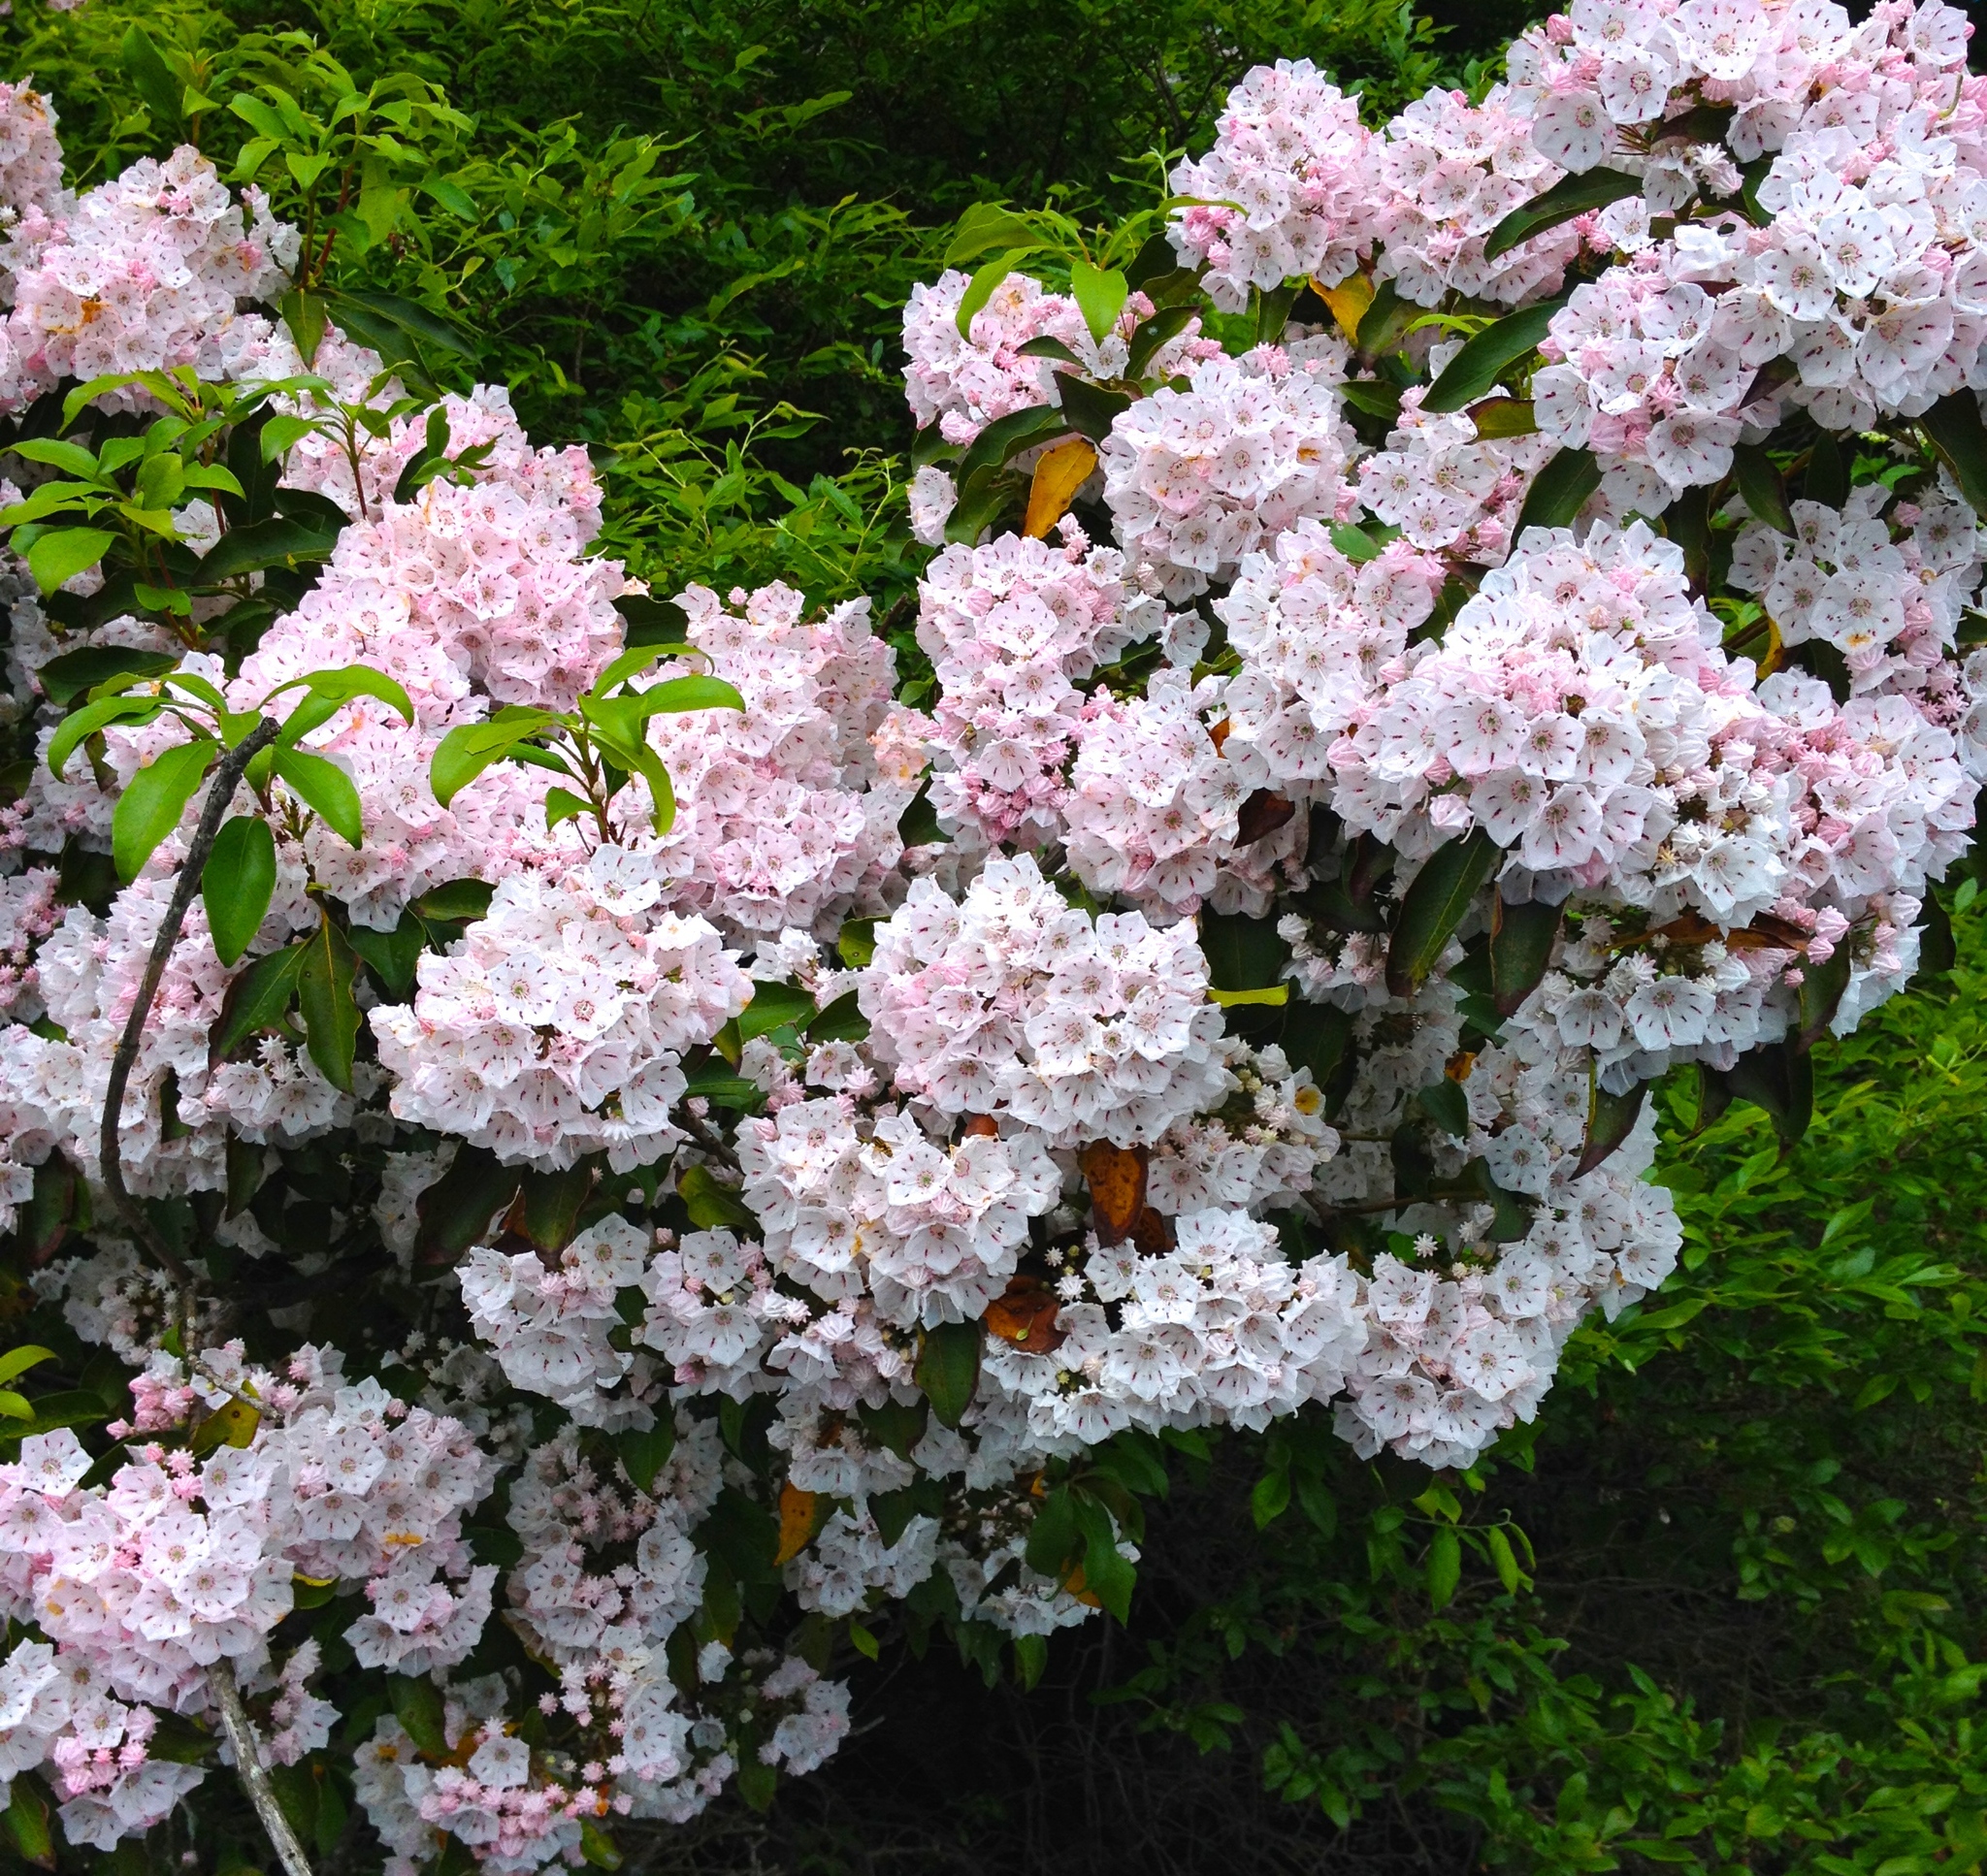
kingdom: Plantae
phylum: Tracheophyta
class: Magnoliopsida
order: Ericales
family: Ericaceae
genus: Kalmia
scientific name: Kalmia latifolia
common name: Mountain-laurel
